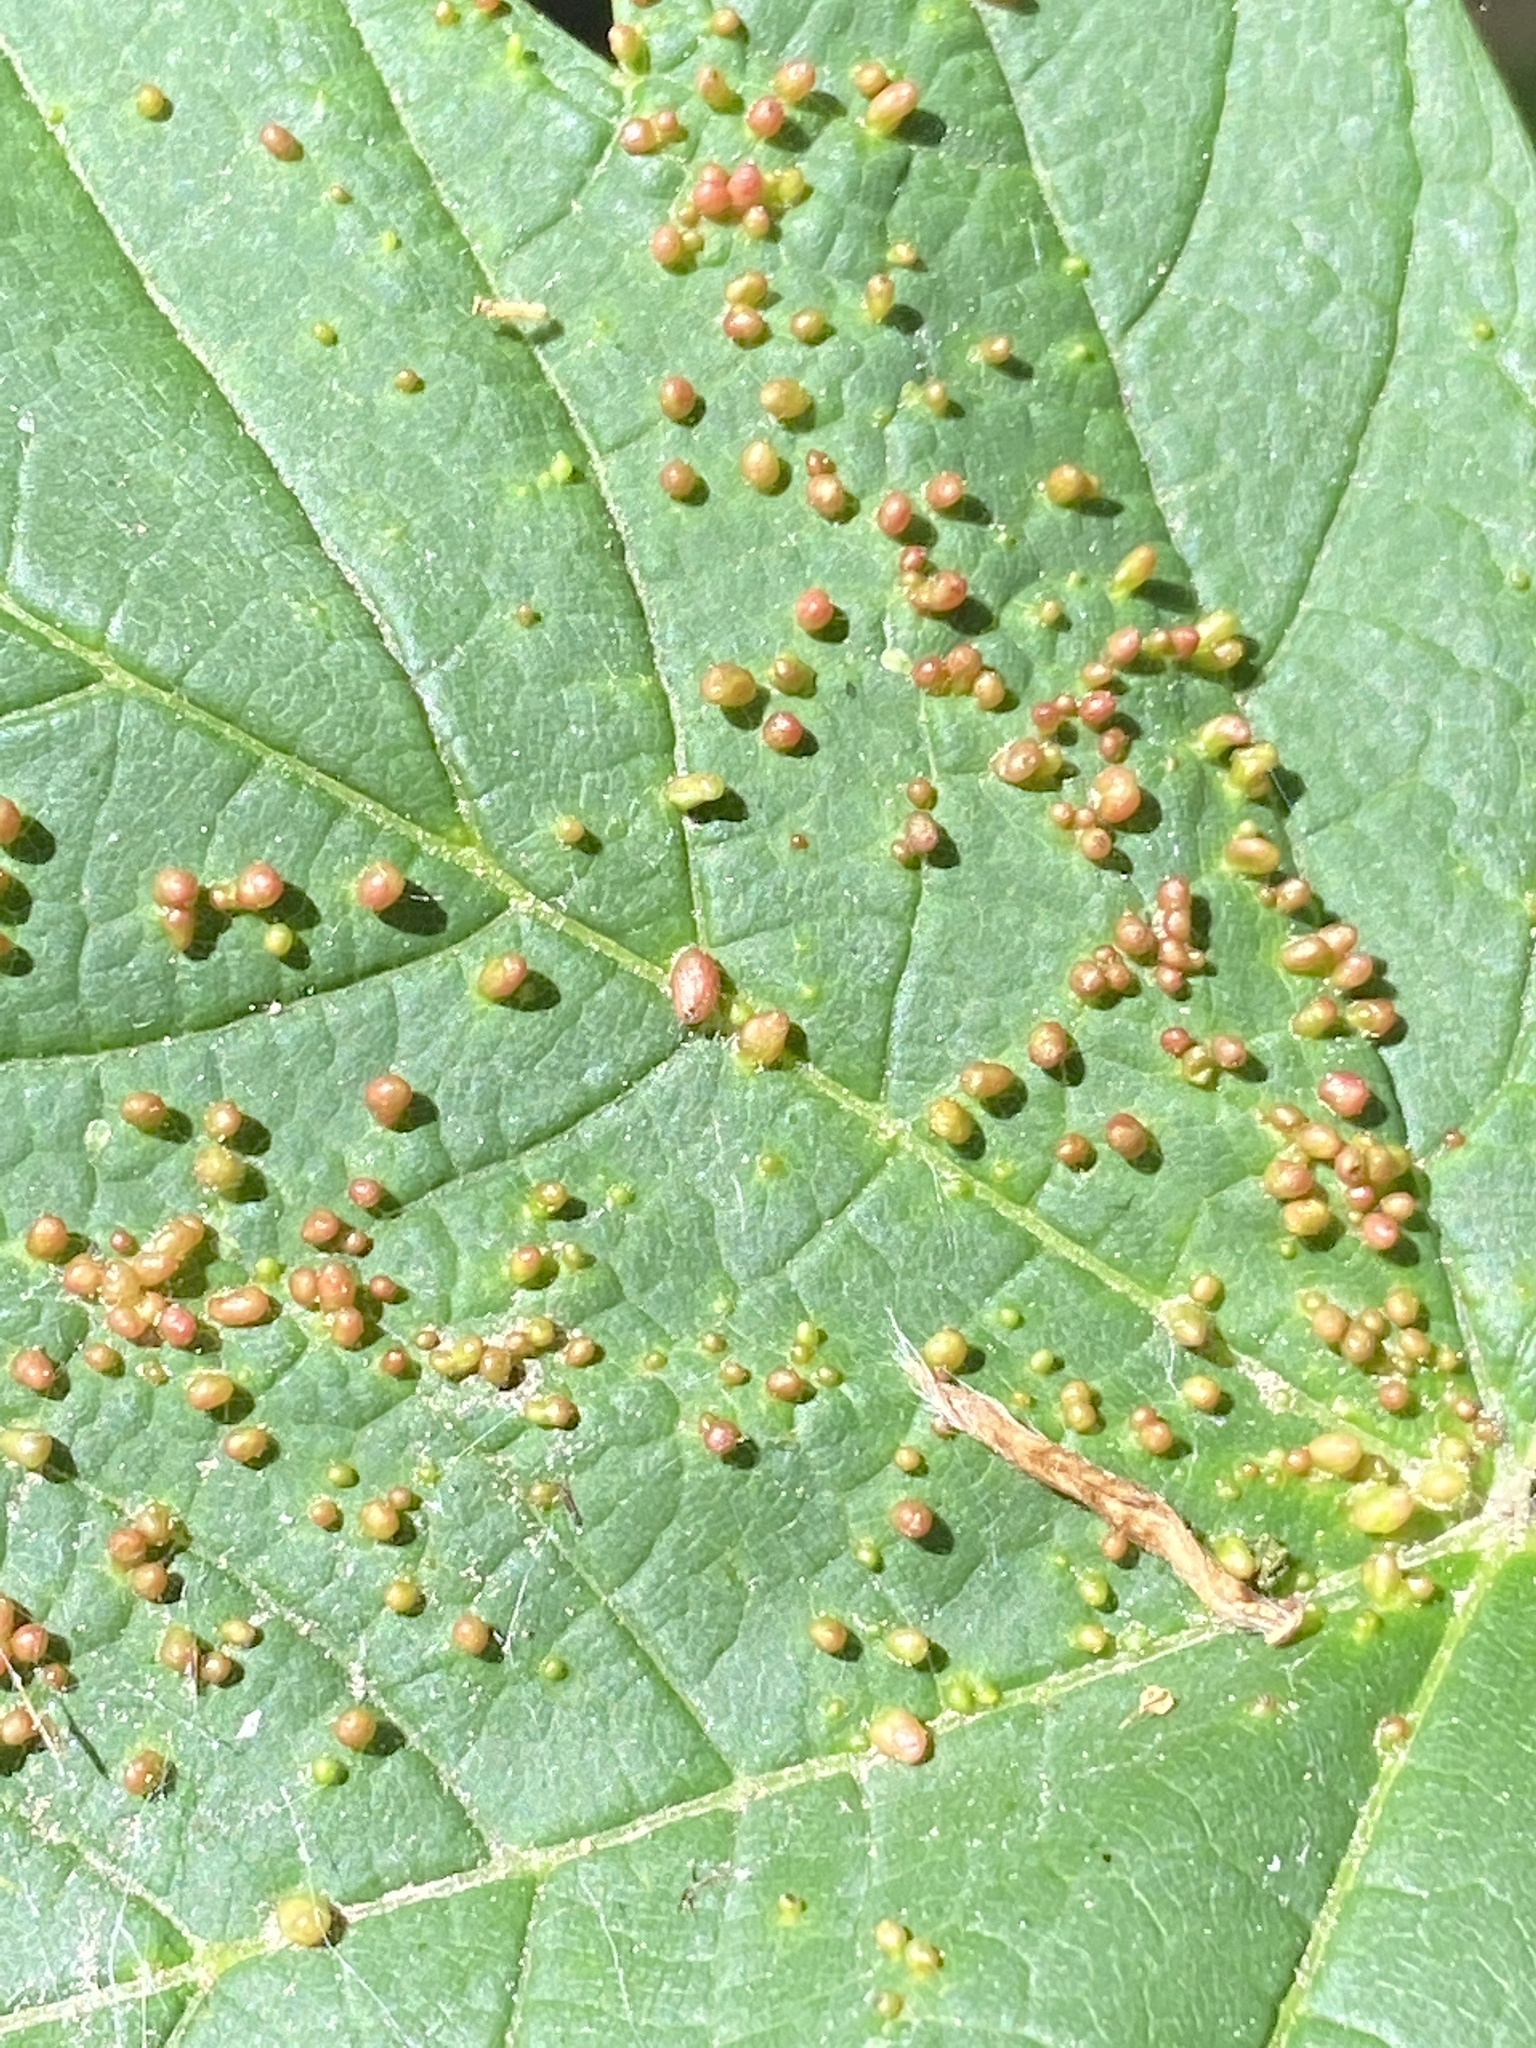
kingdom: Animalia
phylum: Arthropoda
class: Arachnida
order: Trombidiformes
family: Eriophyidae
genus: Aceria
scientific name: Aceria cephaloneus
